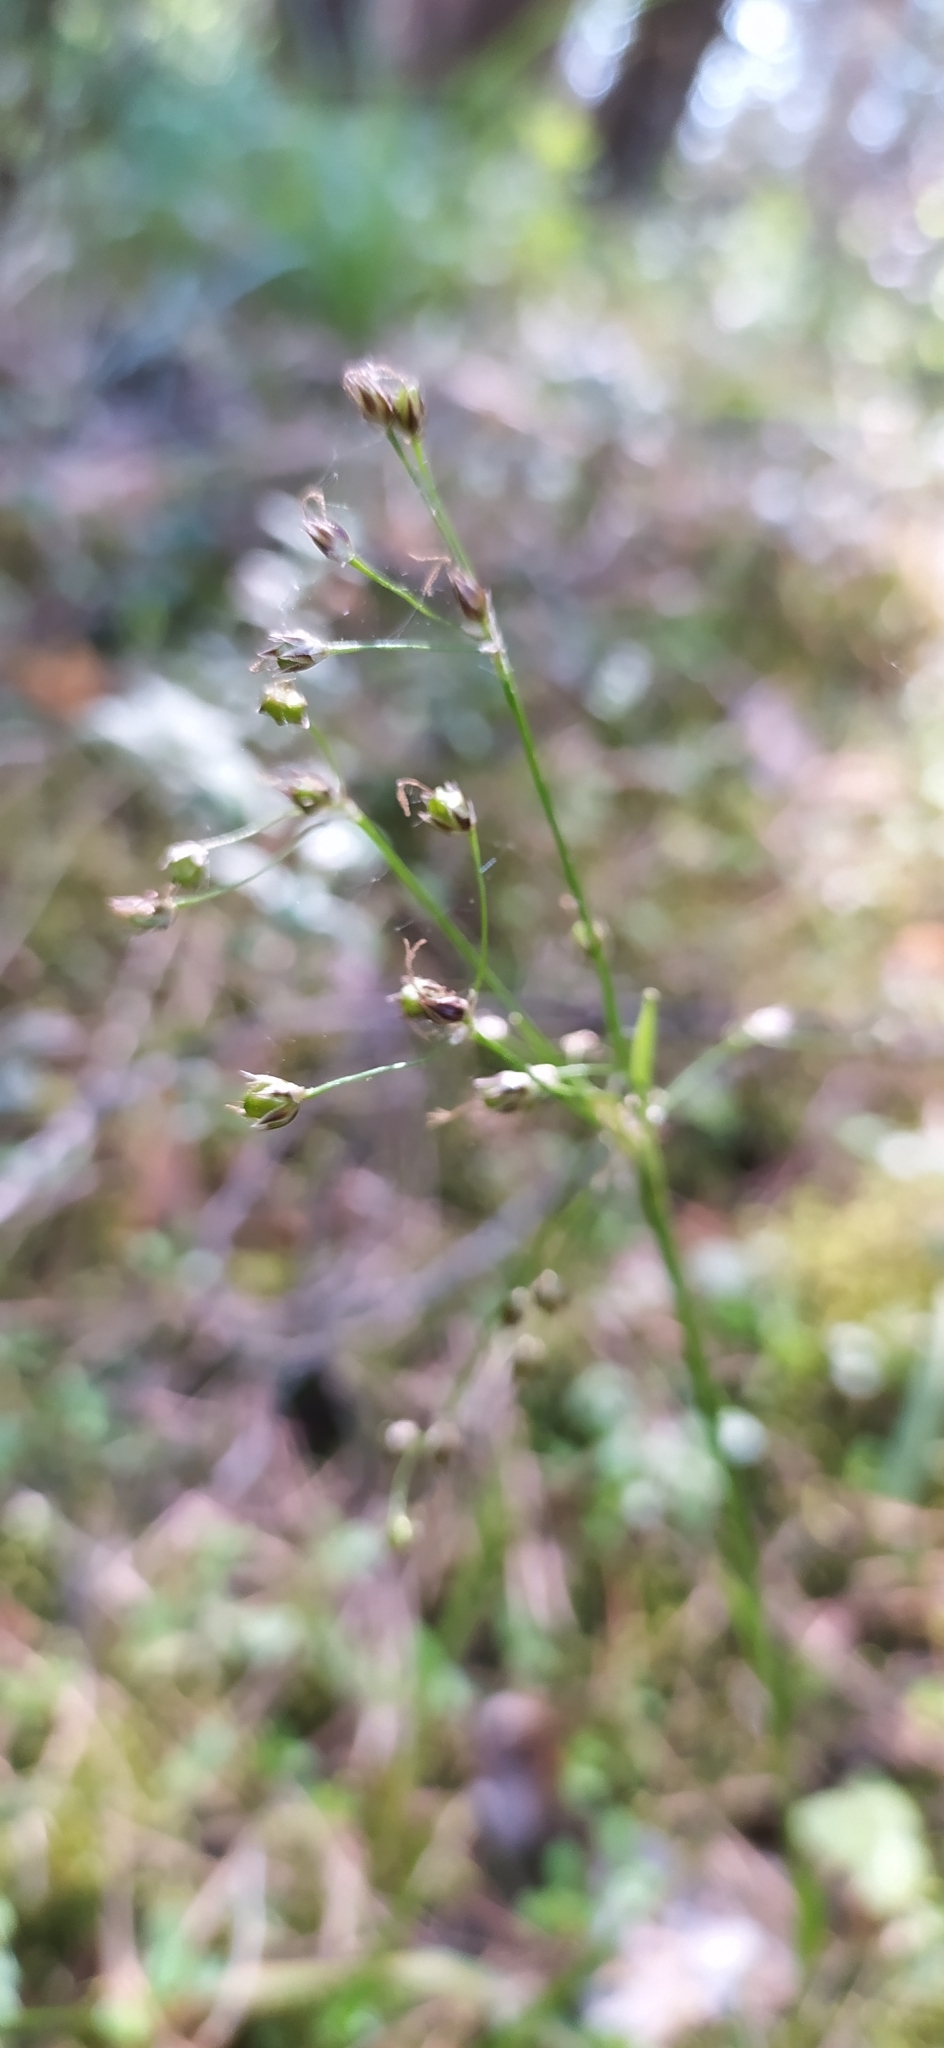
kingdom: Plantae
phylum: Tracheophyta
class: Liliopsida
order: Poales
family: Juncaceae
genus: Luzula
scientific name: Luzula pilosa
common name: Hairy wood-rush
